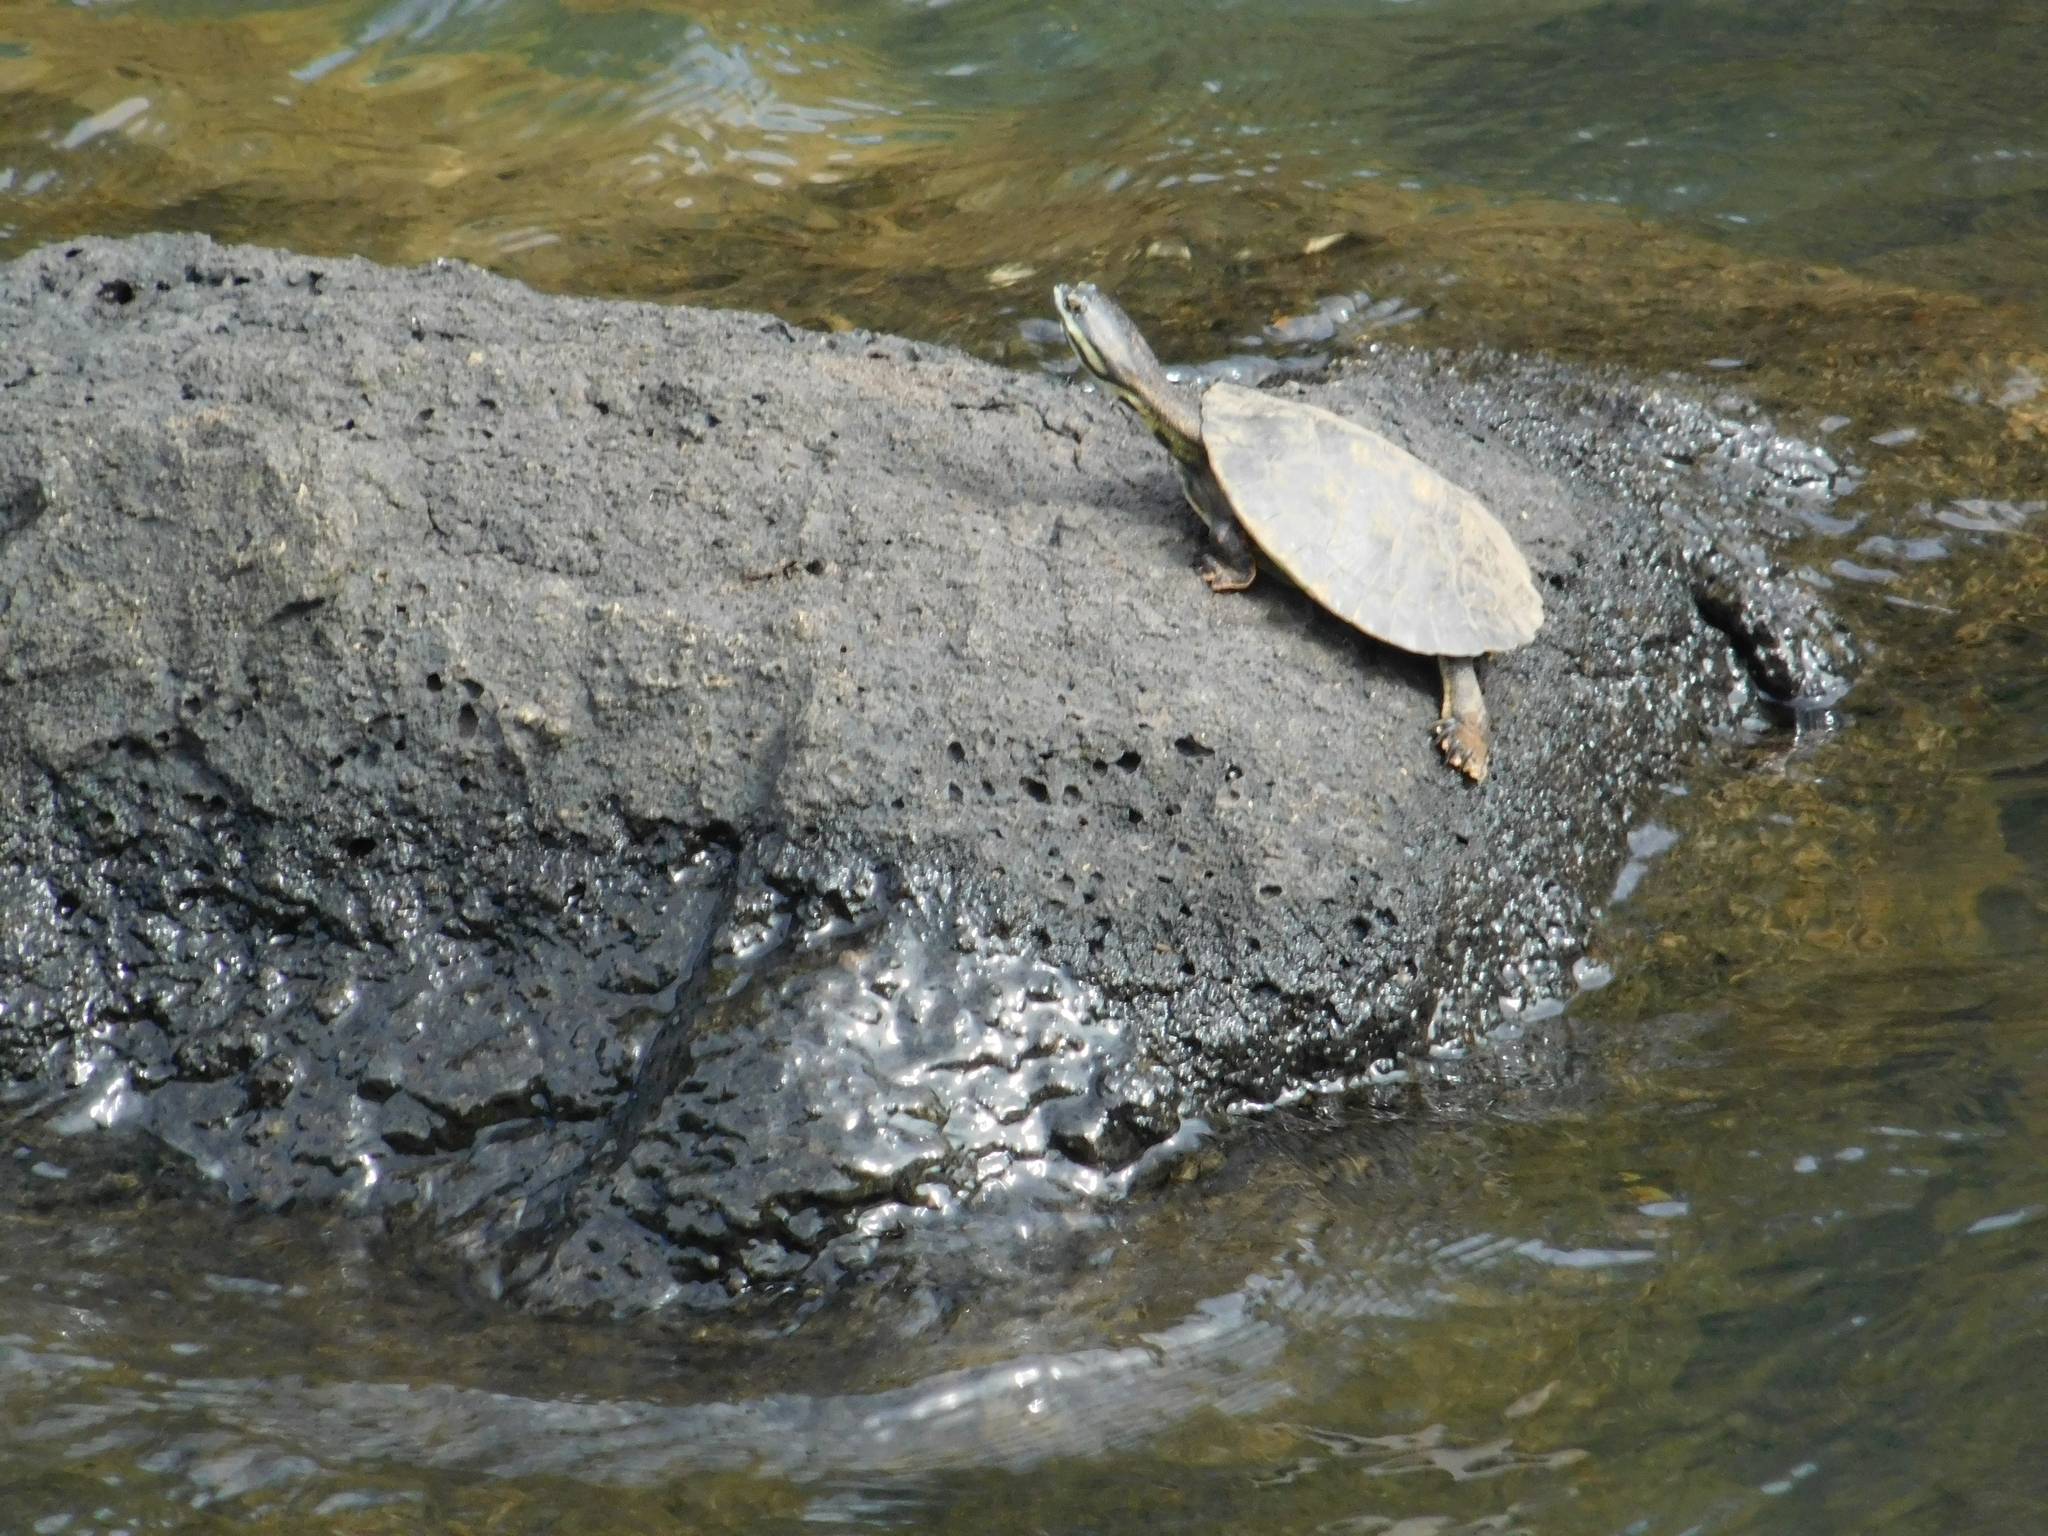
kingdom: Animalia
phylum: Chordata
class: Testudines
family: Chelidae
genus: Phrynops
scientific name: Phrynops williamsi
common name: Williams side-necked turtle
